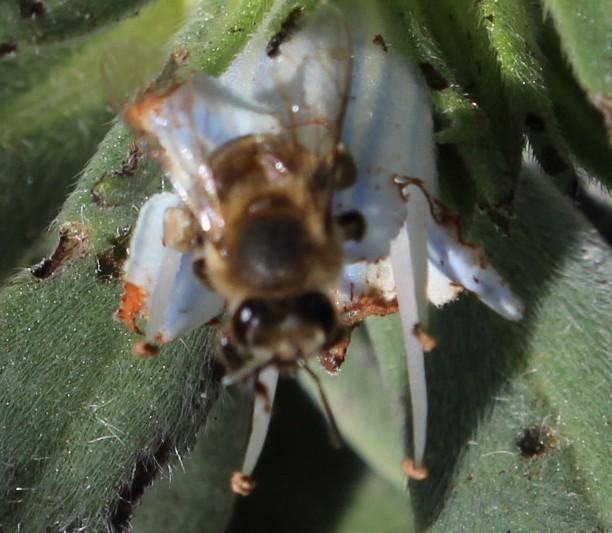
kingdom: Animalia
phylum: Arthropoda
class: Insecta
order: Hymenoptera
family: Apidae
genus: Apis
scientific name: Apis mellifera
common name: Honey bee
